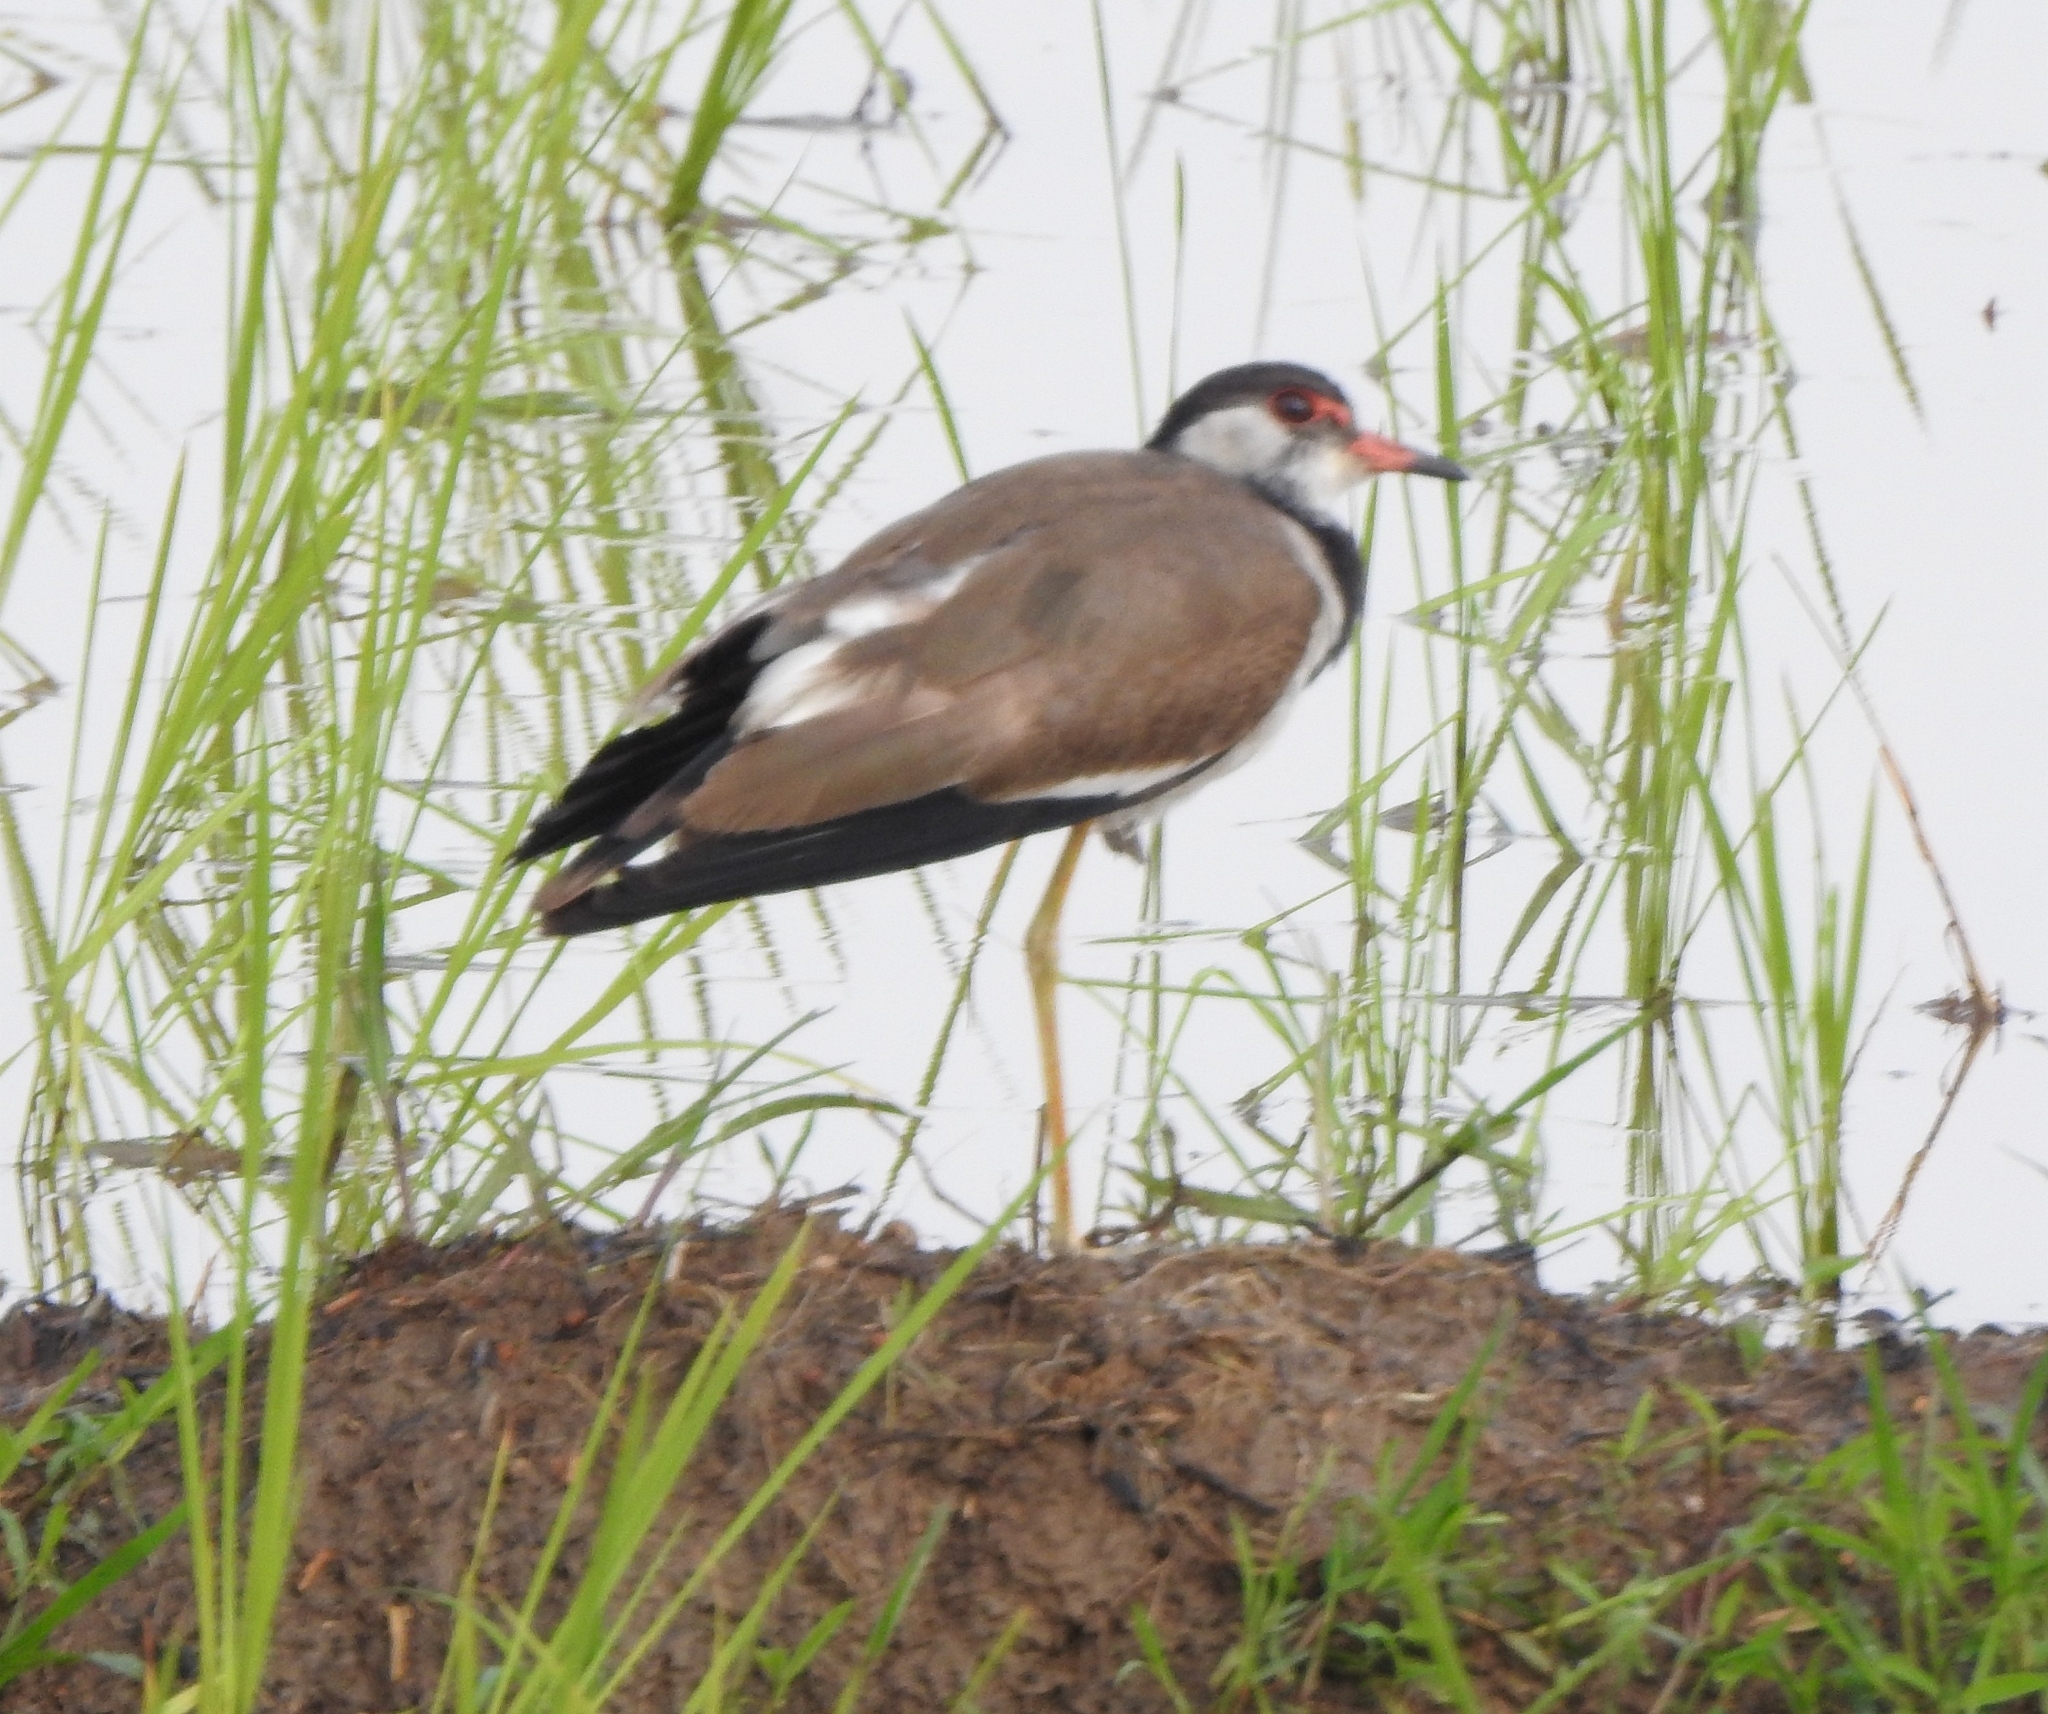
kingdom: Animalia
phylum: Chordata
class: Aves
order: Charadriiformes
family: Charadriidae
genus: Vanellus
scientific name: Vanellus indicus
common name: Red-wattled lapwing
